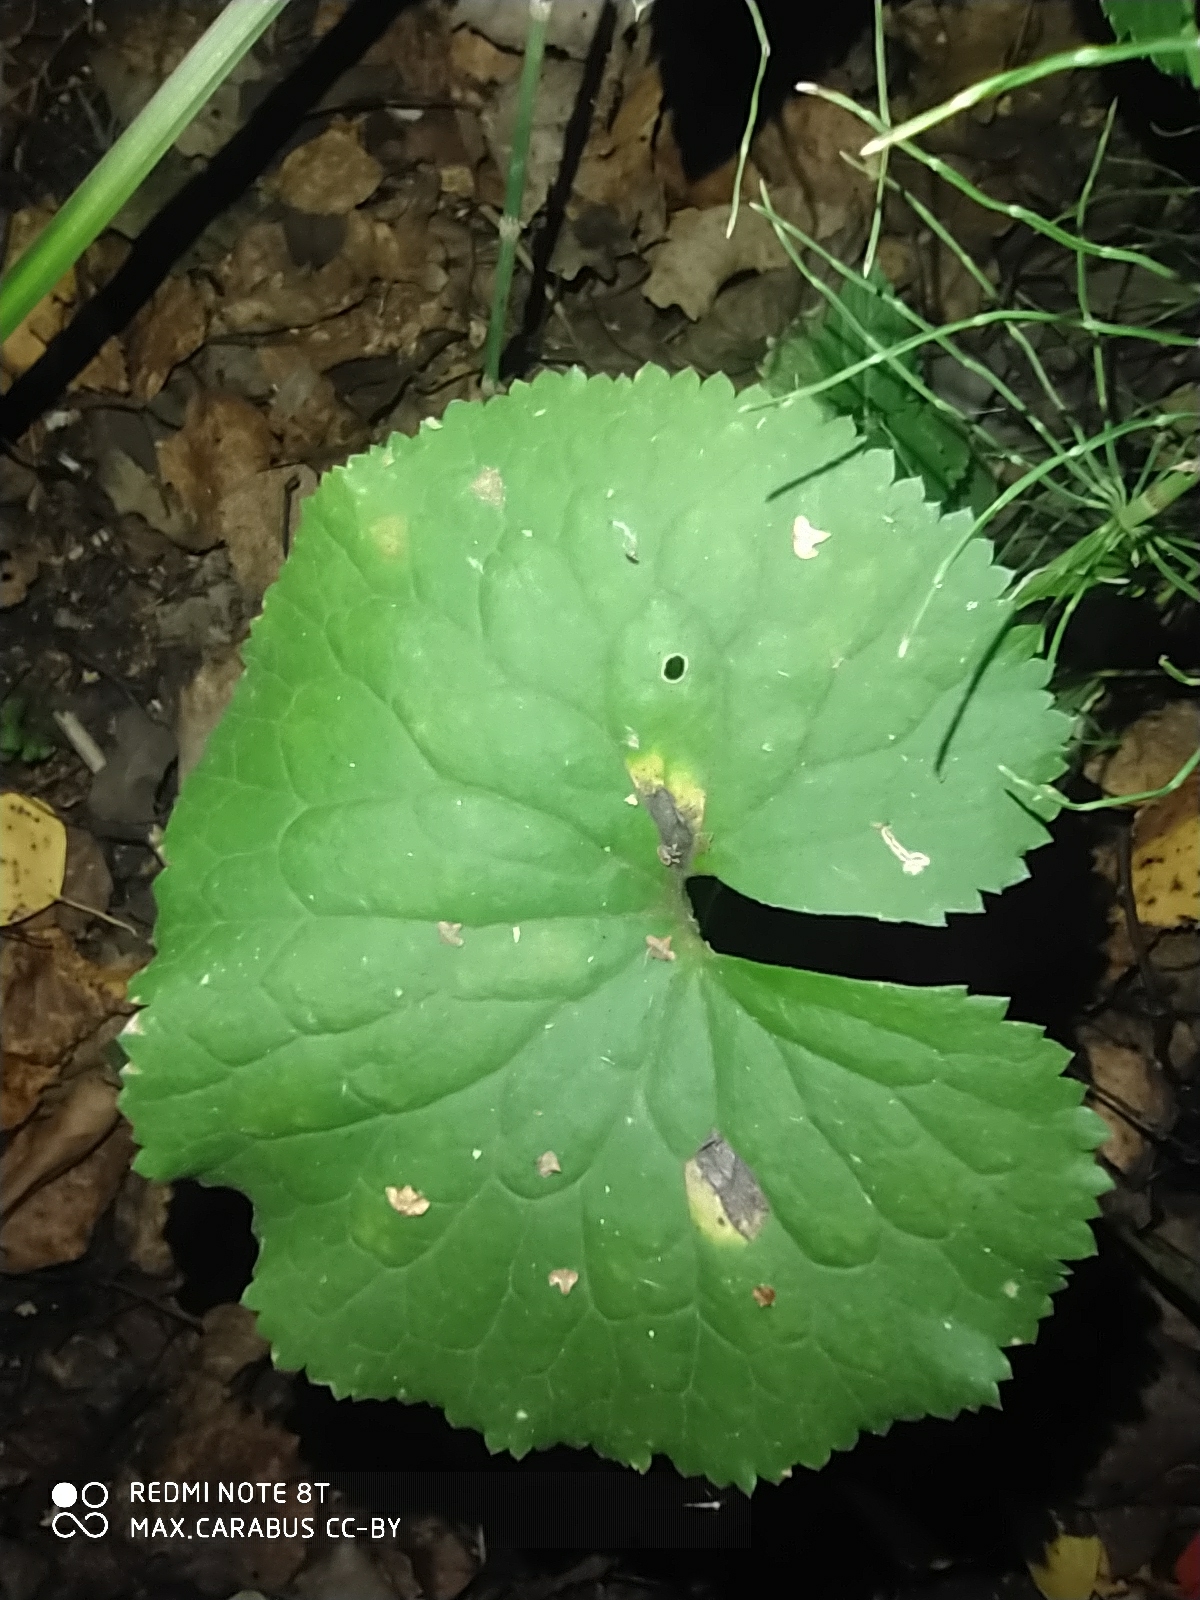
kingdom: Plantae
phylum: Tracheophyta
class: Magnoliopsida
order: Ranunculales
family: Ranunculaceae
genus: Ranunculus
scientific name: Ranunculus cassubicus
